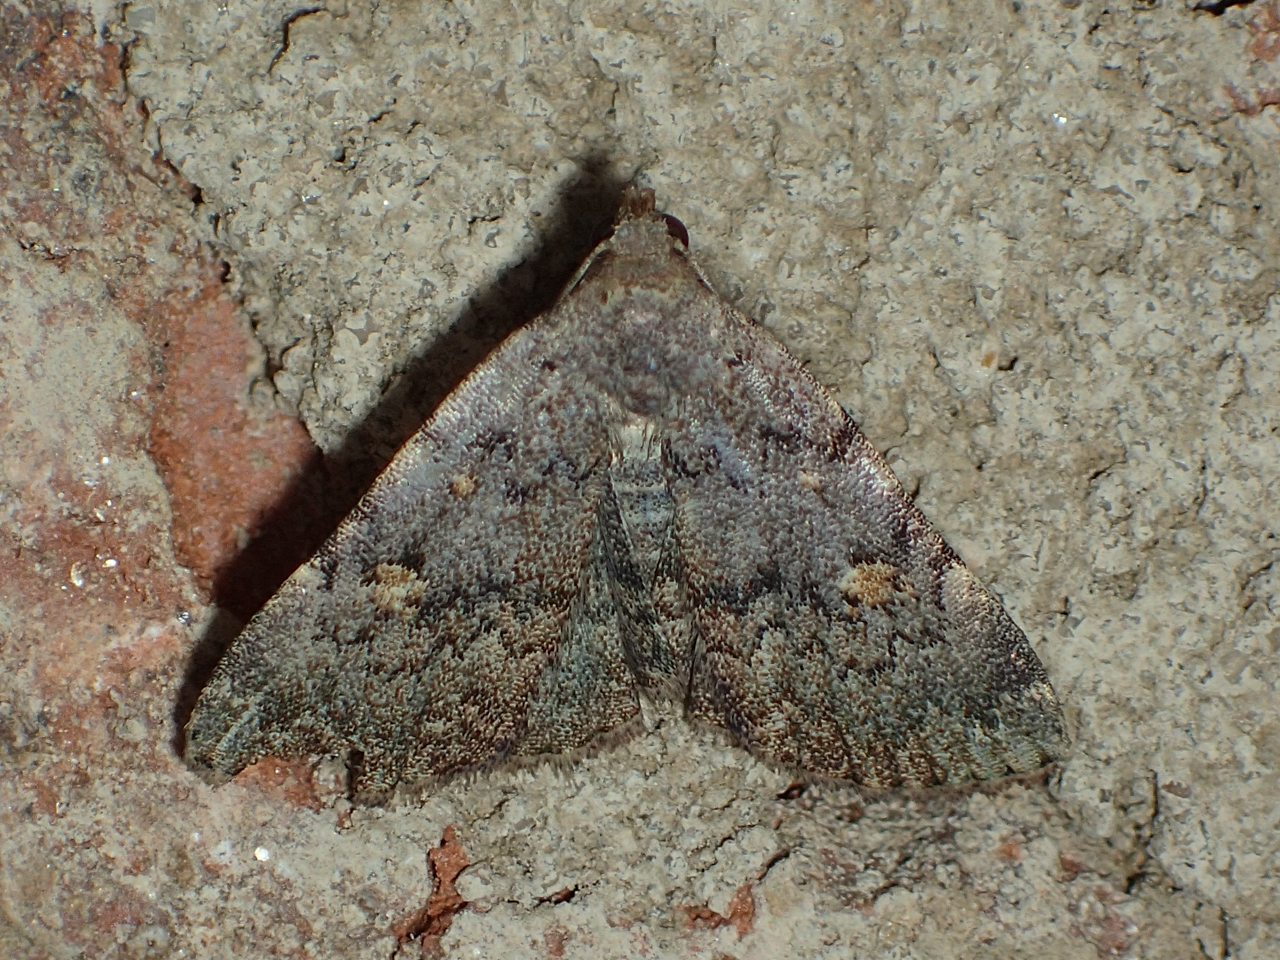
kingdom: Animalia
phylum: Arthropoda
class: Insecta
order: Lepidoptera
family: Erebidae
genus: Idia
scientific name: Idia aemula
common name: Common idia moth
